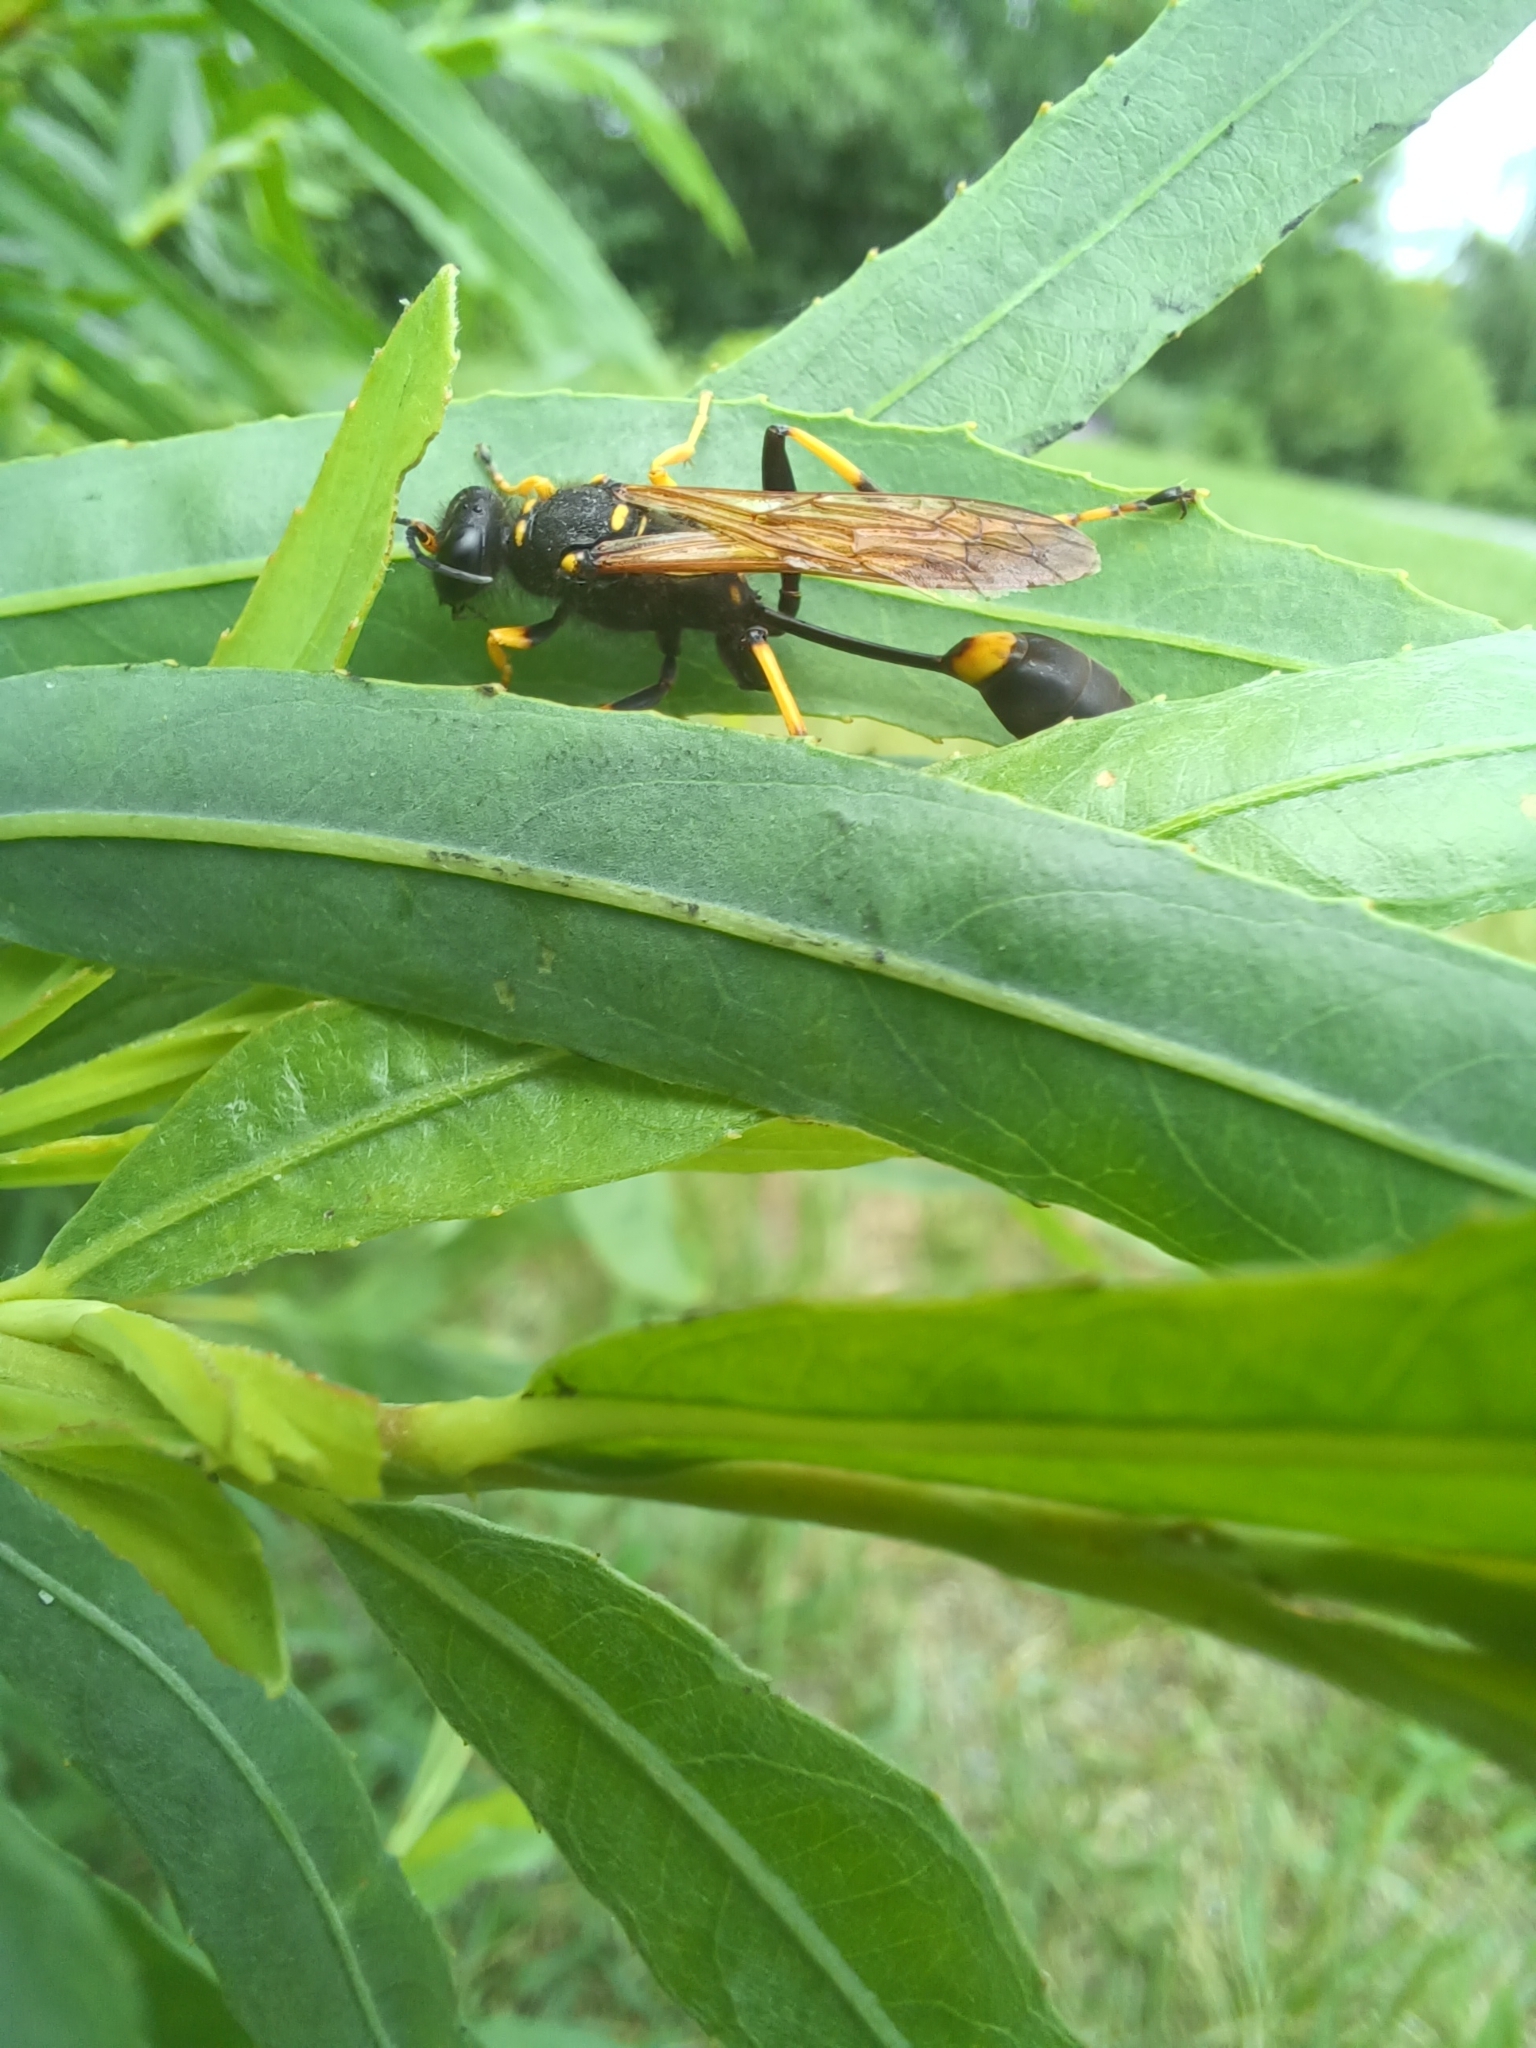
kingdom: Animalia
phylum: Arthropoda
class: Insecta
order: Hymenoptera
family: Sphecidae
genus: Sceliphron
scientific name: Sceliphron caementarium
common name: Mud dauber
